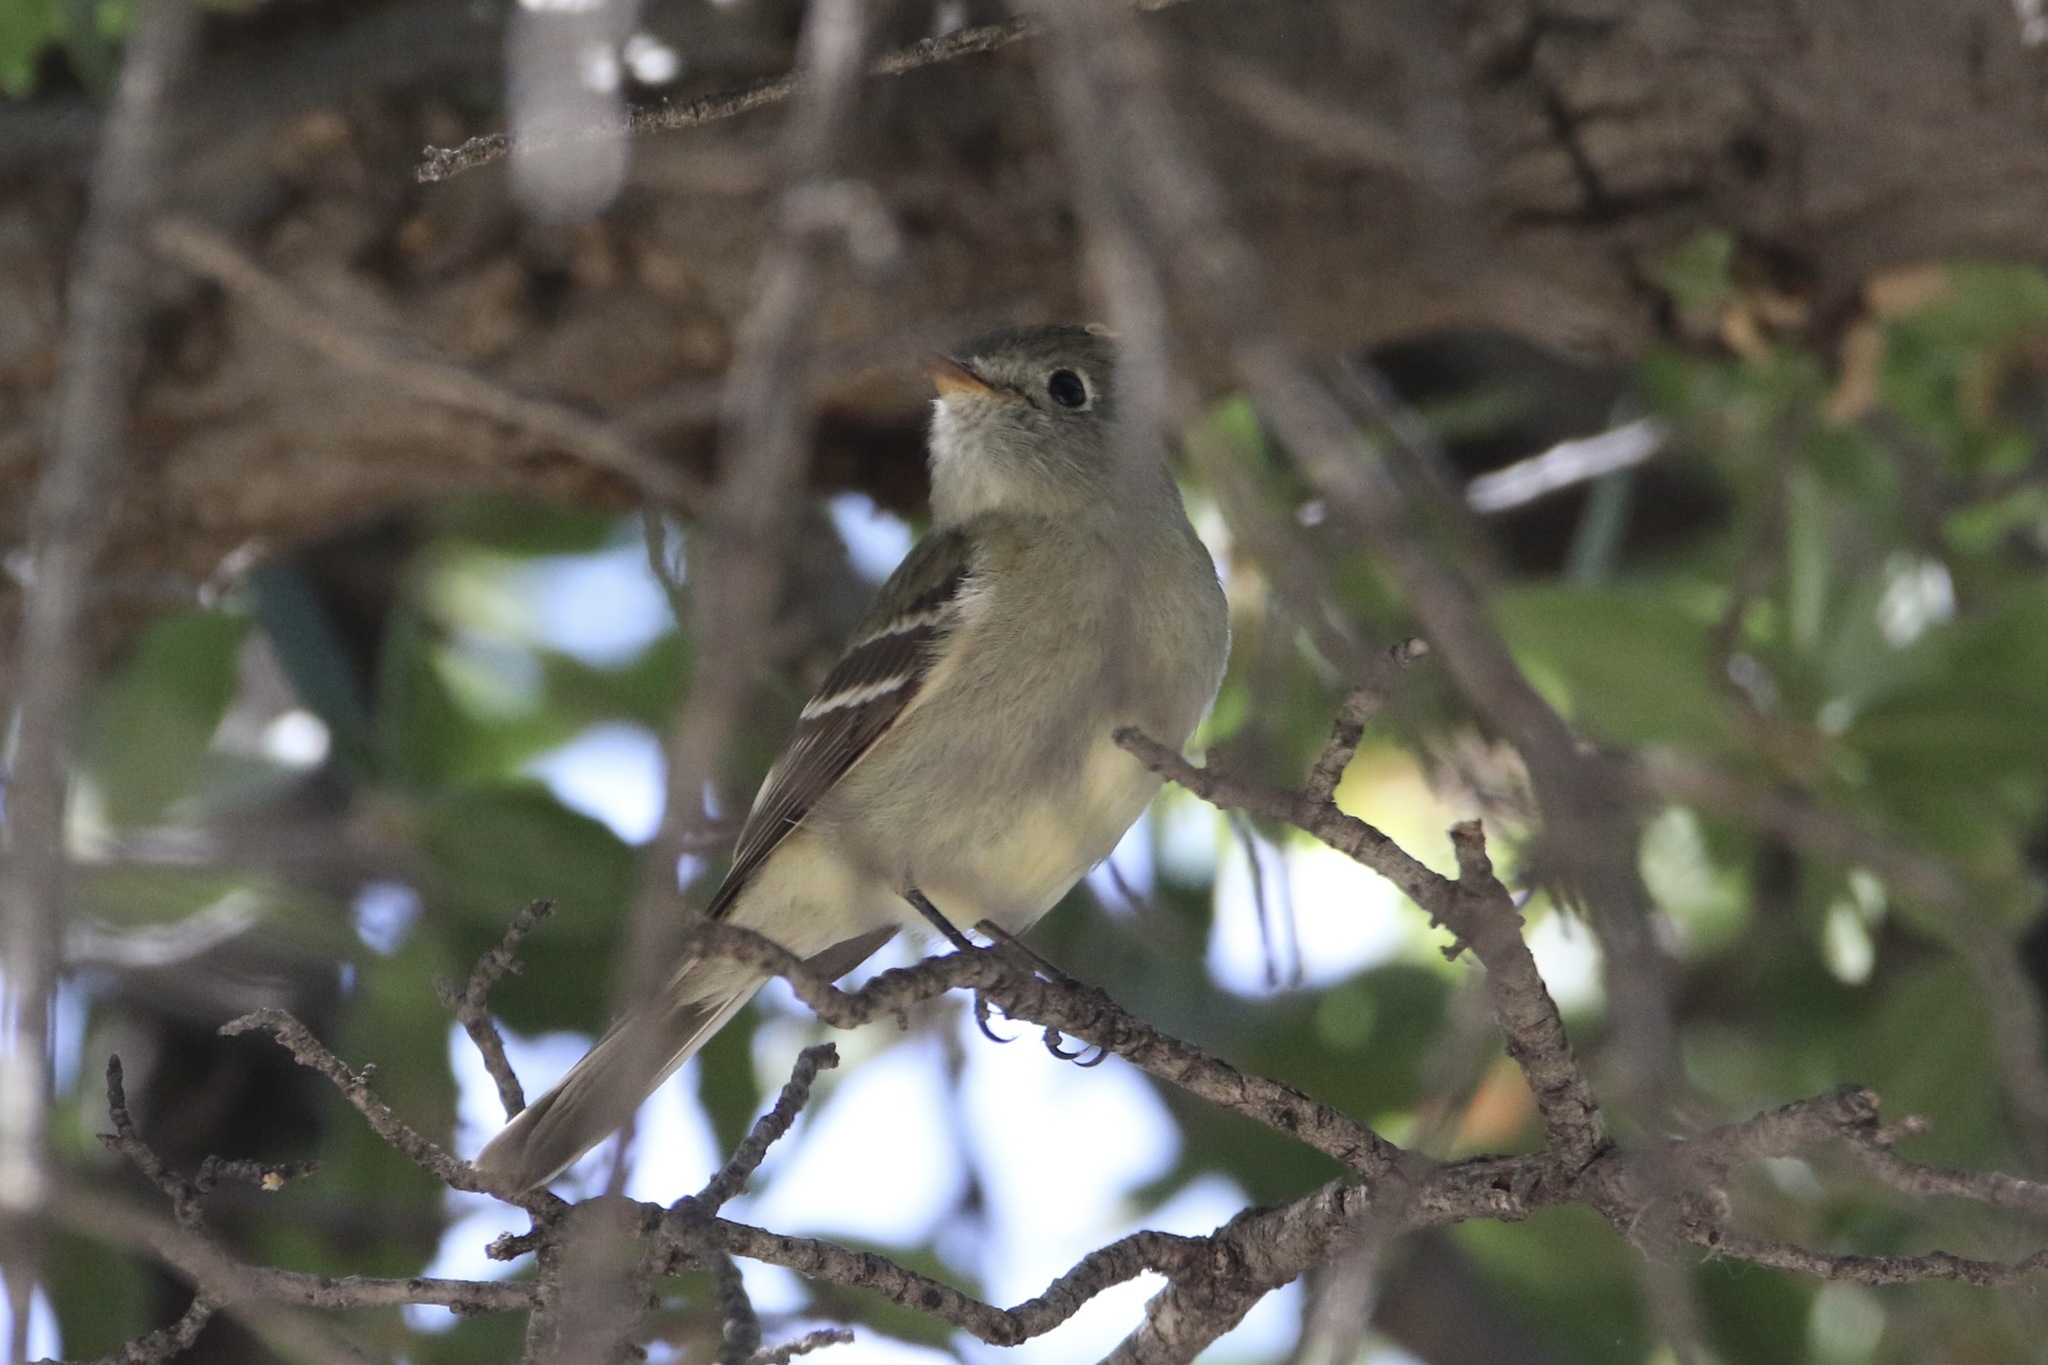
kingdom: Animalia
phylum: Chordata
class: Aves
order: Passeriformes
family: Tyrannidae
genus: Empidonax
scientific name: Empidonax hammondii
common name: Hammond's flycatcher
